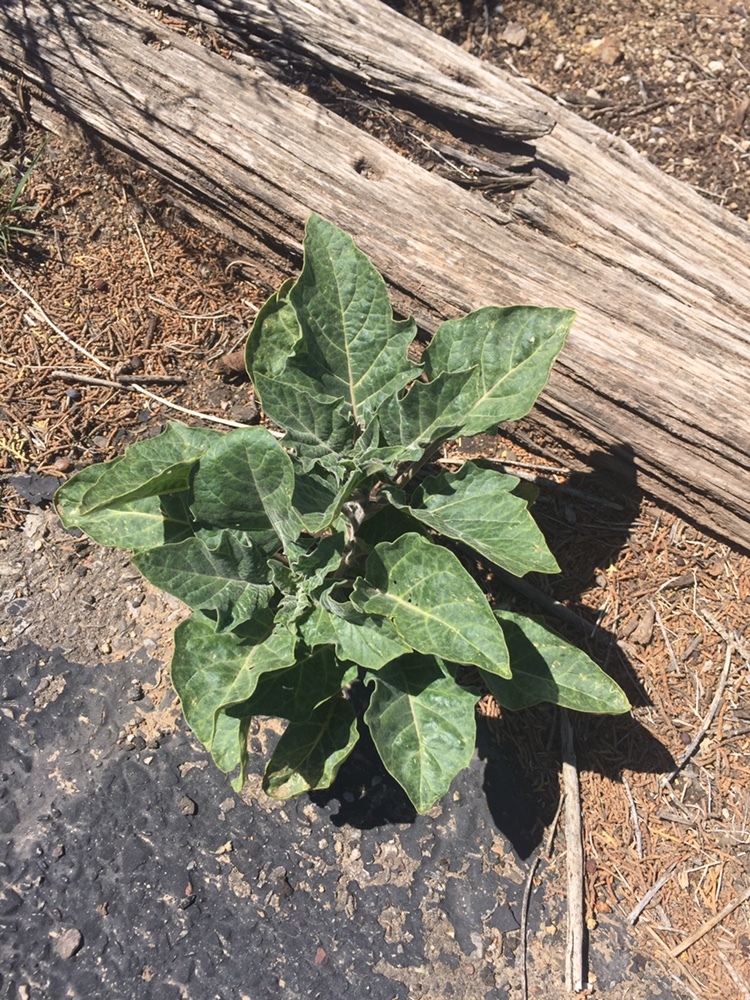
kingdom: Plantae
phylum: Tracheophyta
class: Magnoliopsida
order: Solanales
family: Solanaceae
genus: Datura
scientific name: Datura wrightii
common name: Sacred thorn-apple
